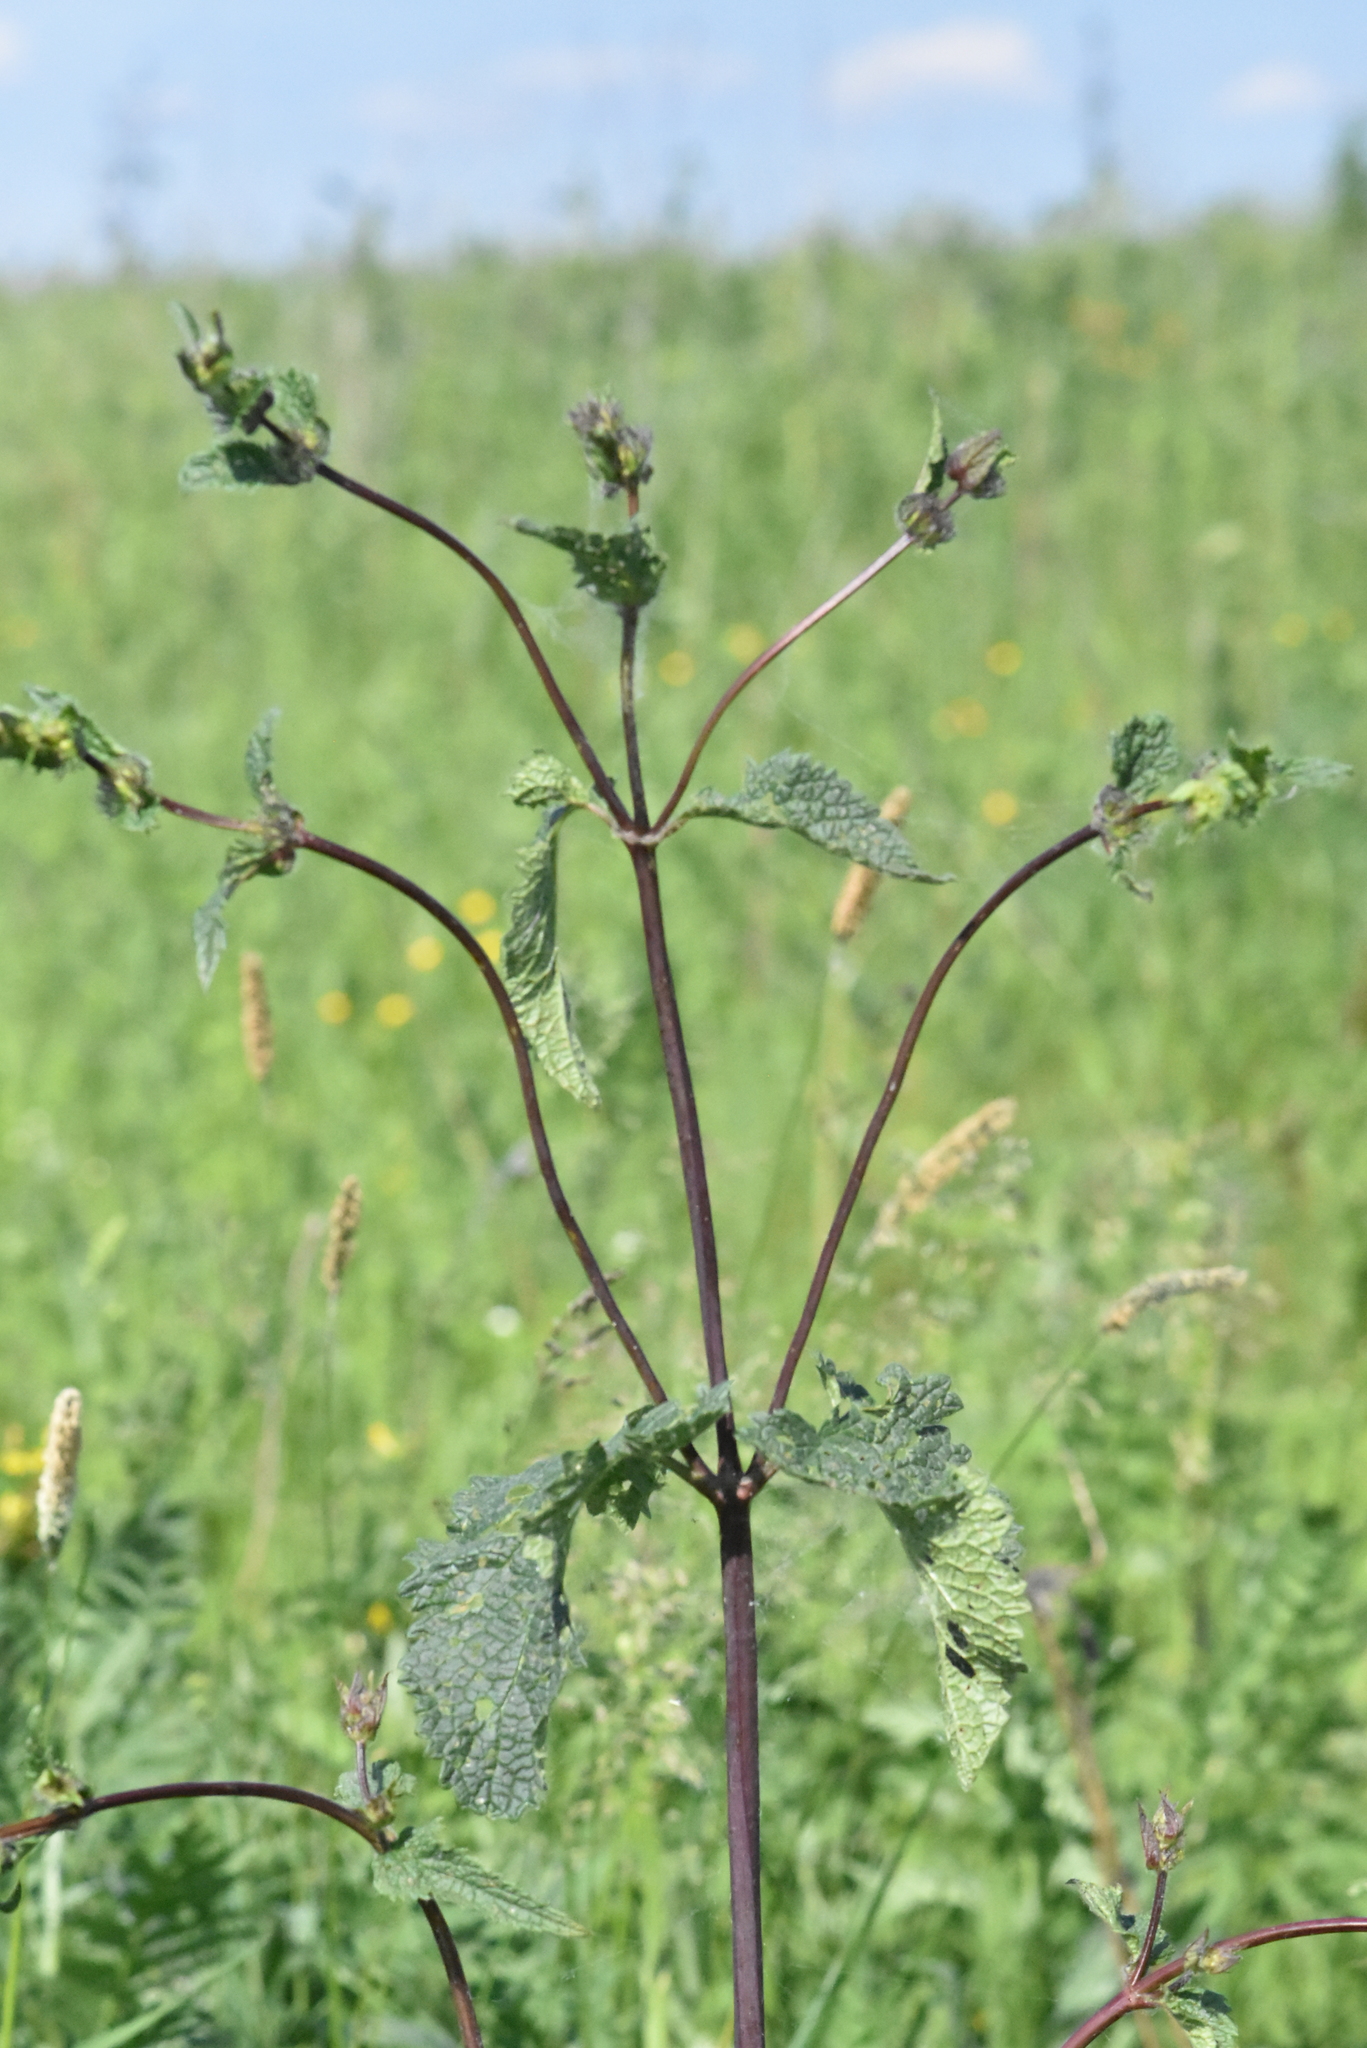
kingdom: Plantae
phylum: Tracheophyta
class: Magnoliopsida
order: Lamiales
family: Lamiaceae
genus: Phlomoides
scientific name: Phlomoides tuberosa
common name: Tuberous jerusalem sage
